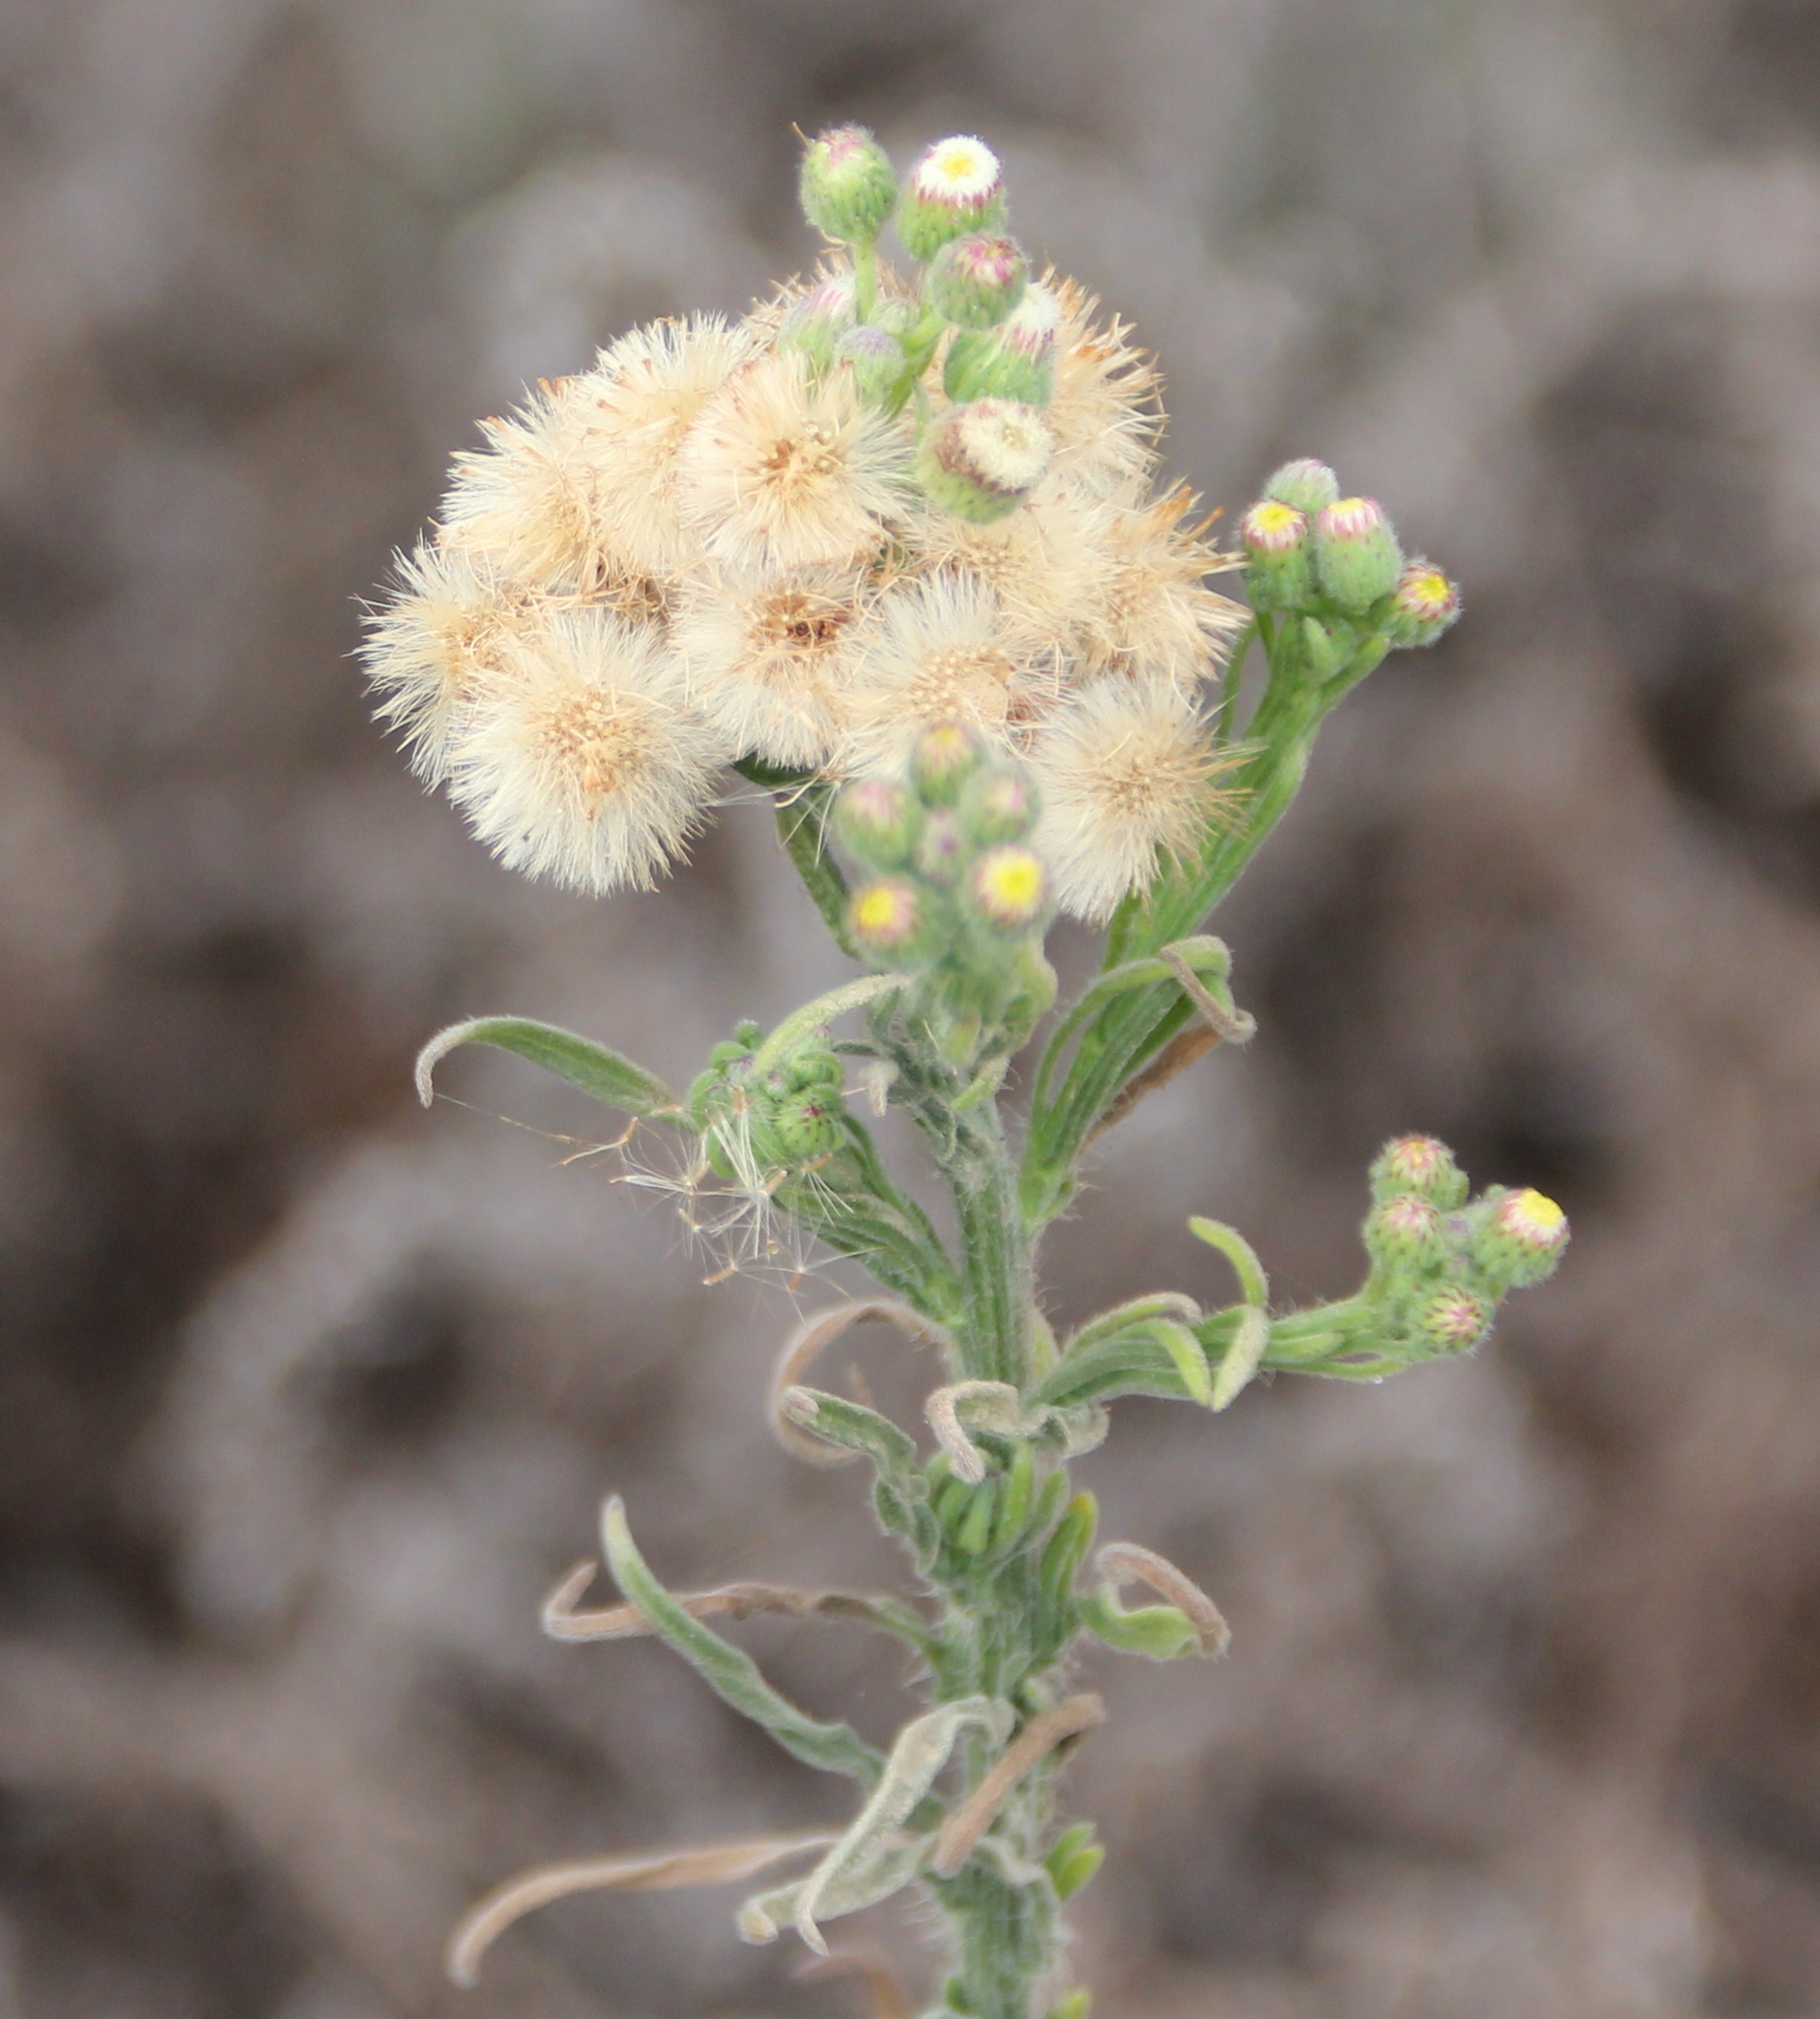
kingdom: Plantae
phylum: Tracheophyta
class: Magnoliopsida
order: Asterales
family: Asteraceae
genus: Erigeron
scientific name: Erigeron bonariensis
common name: Argentine fleabane
